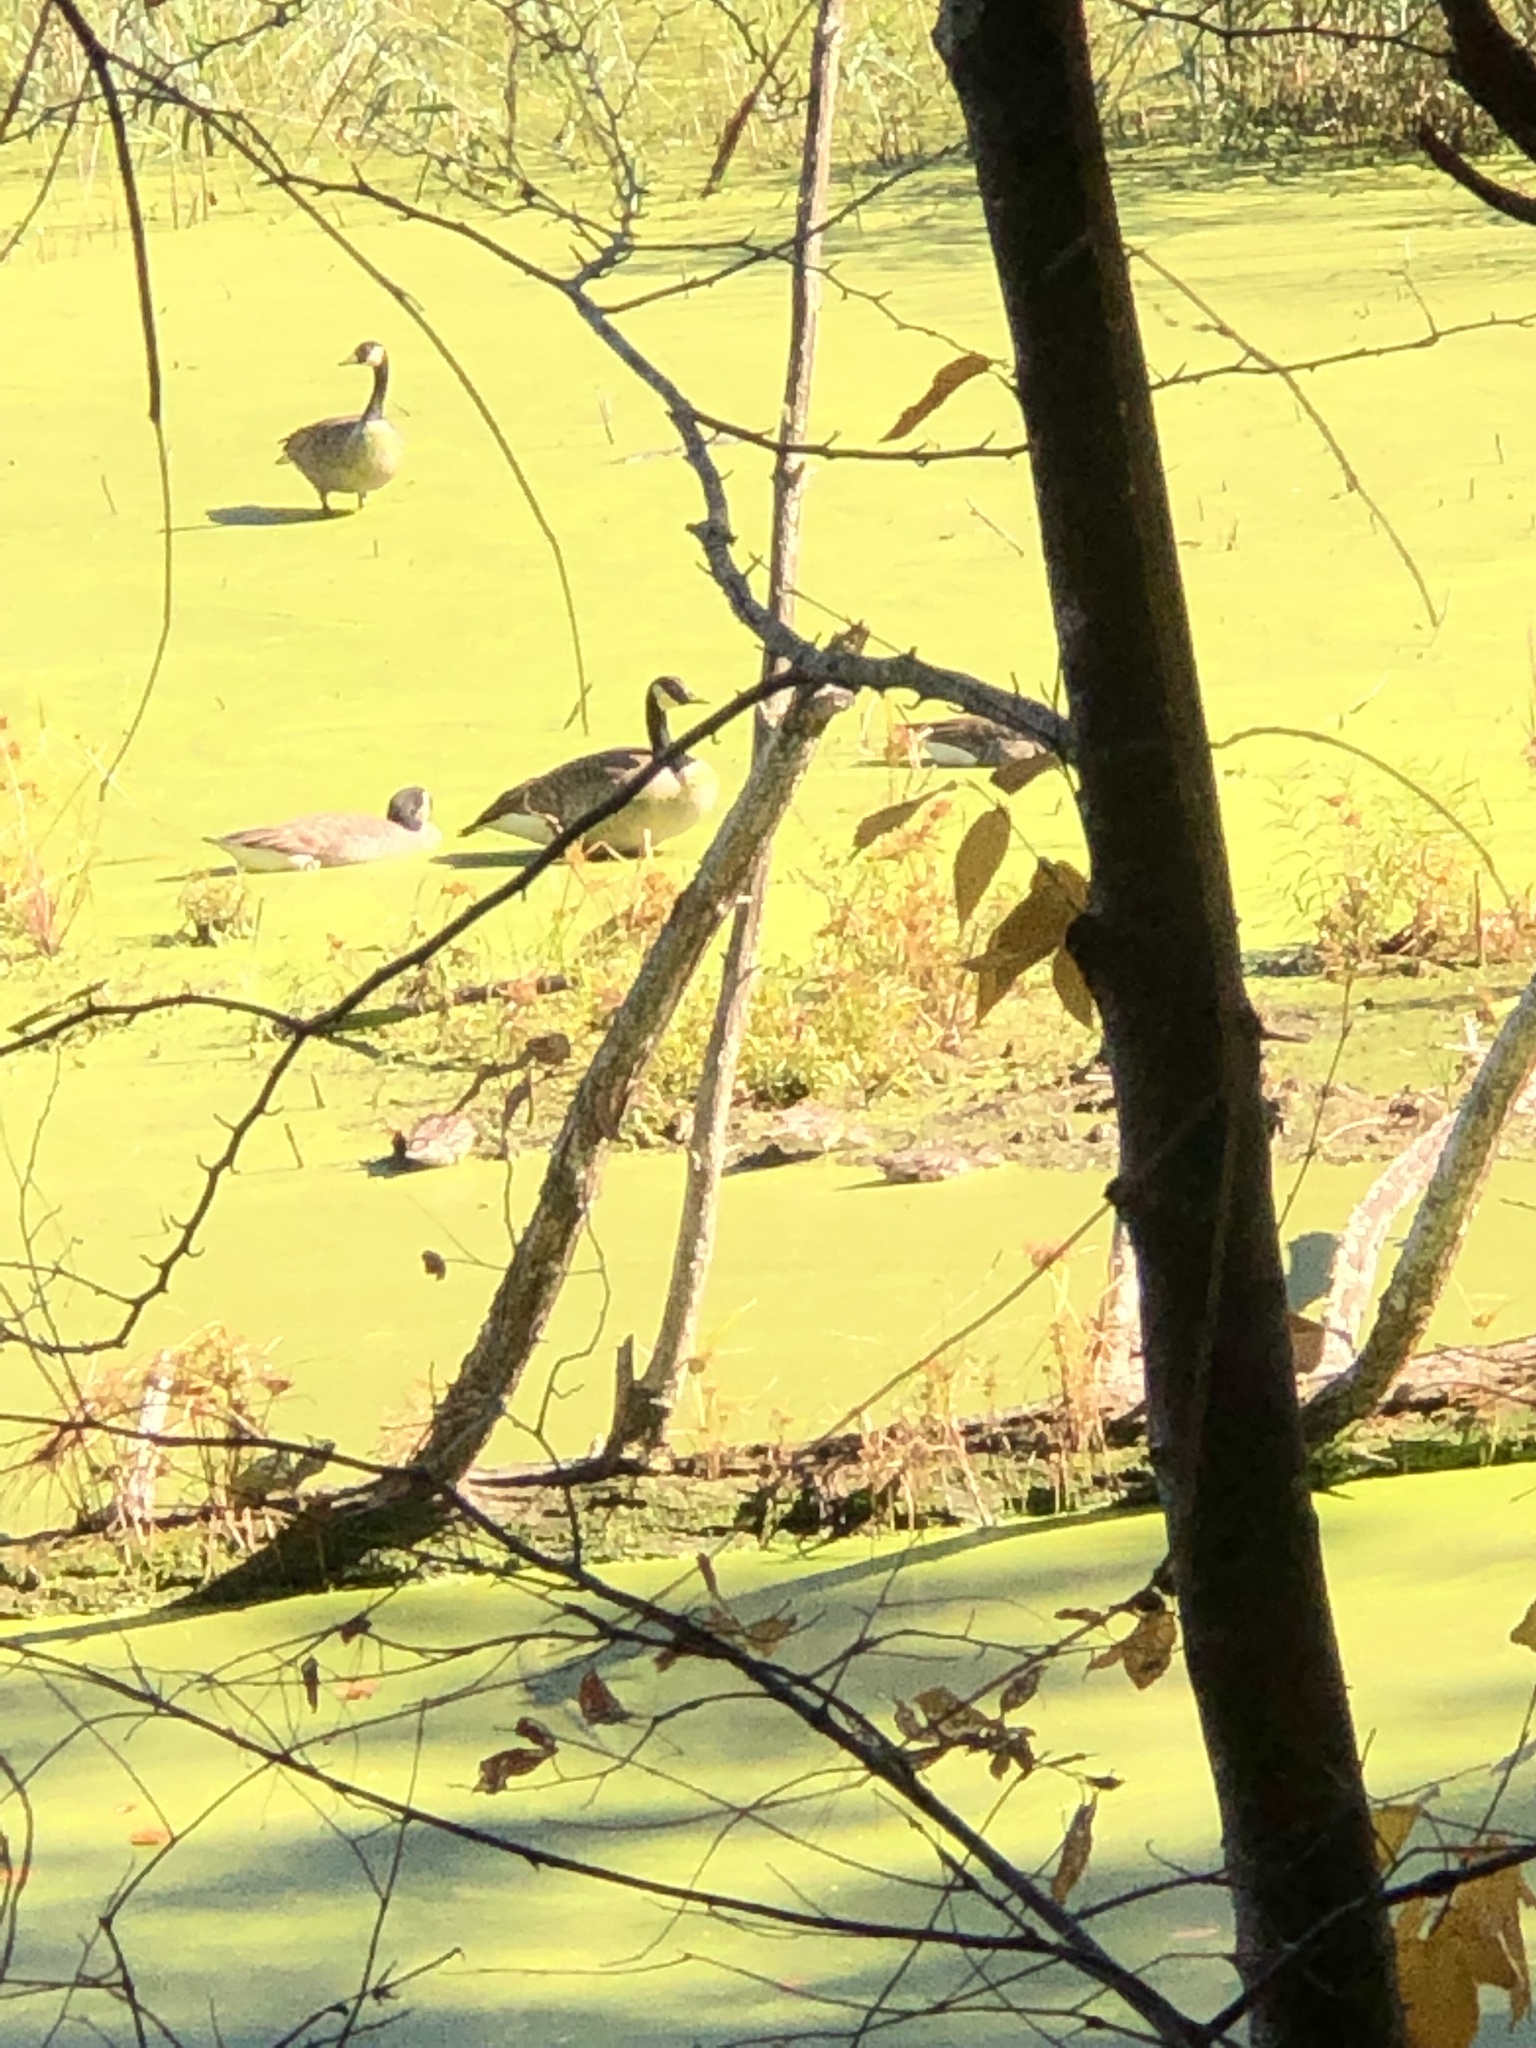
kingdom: Animalia
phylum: Chordata
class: Aves
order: Anseriformes
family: Anatidae
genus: Branta
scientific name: Branta canadensis
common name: Canada goose
